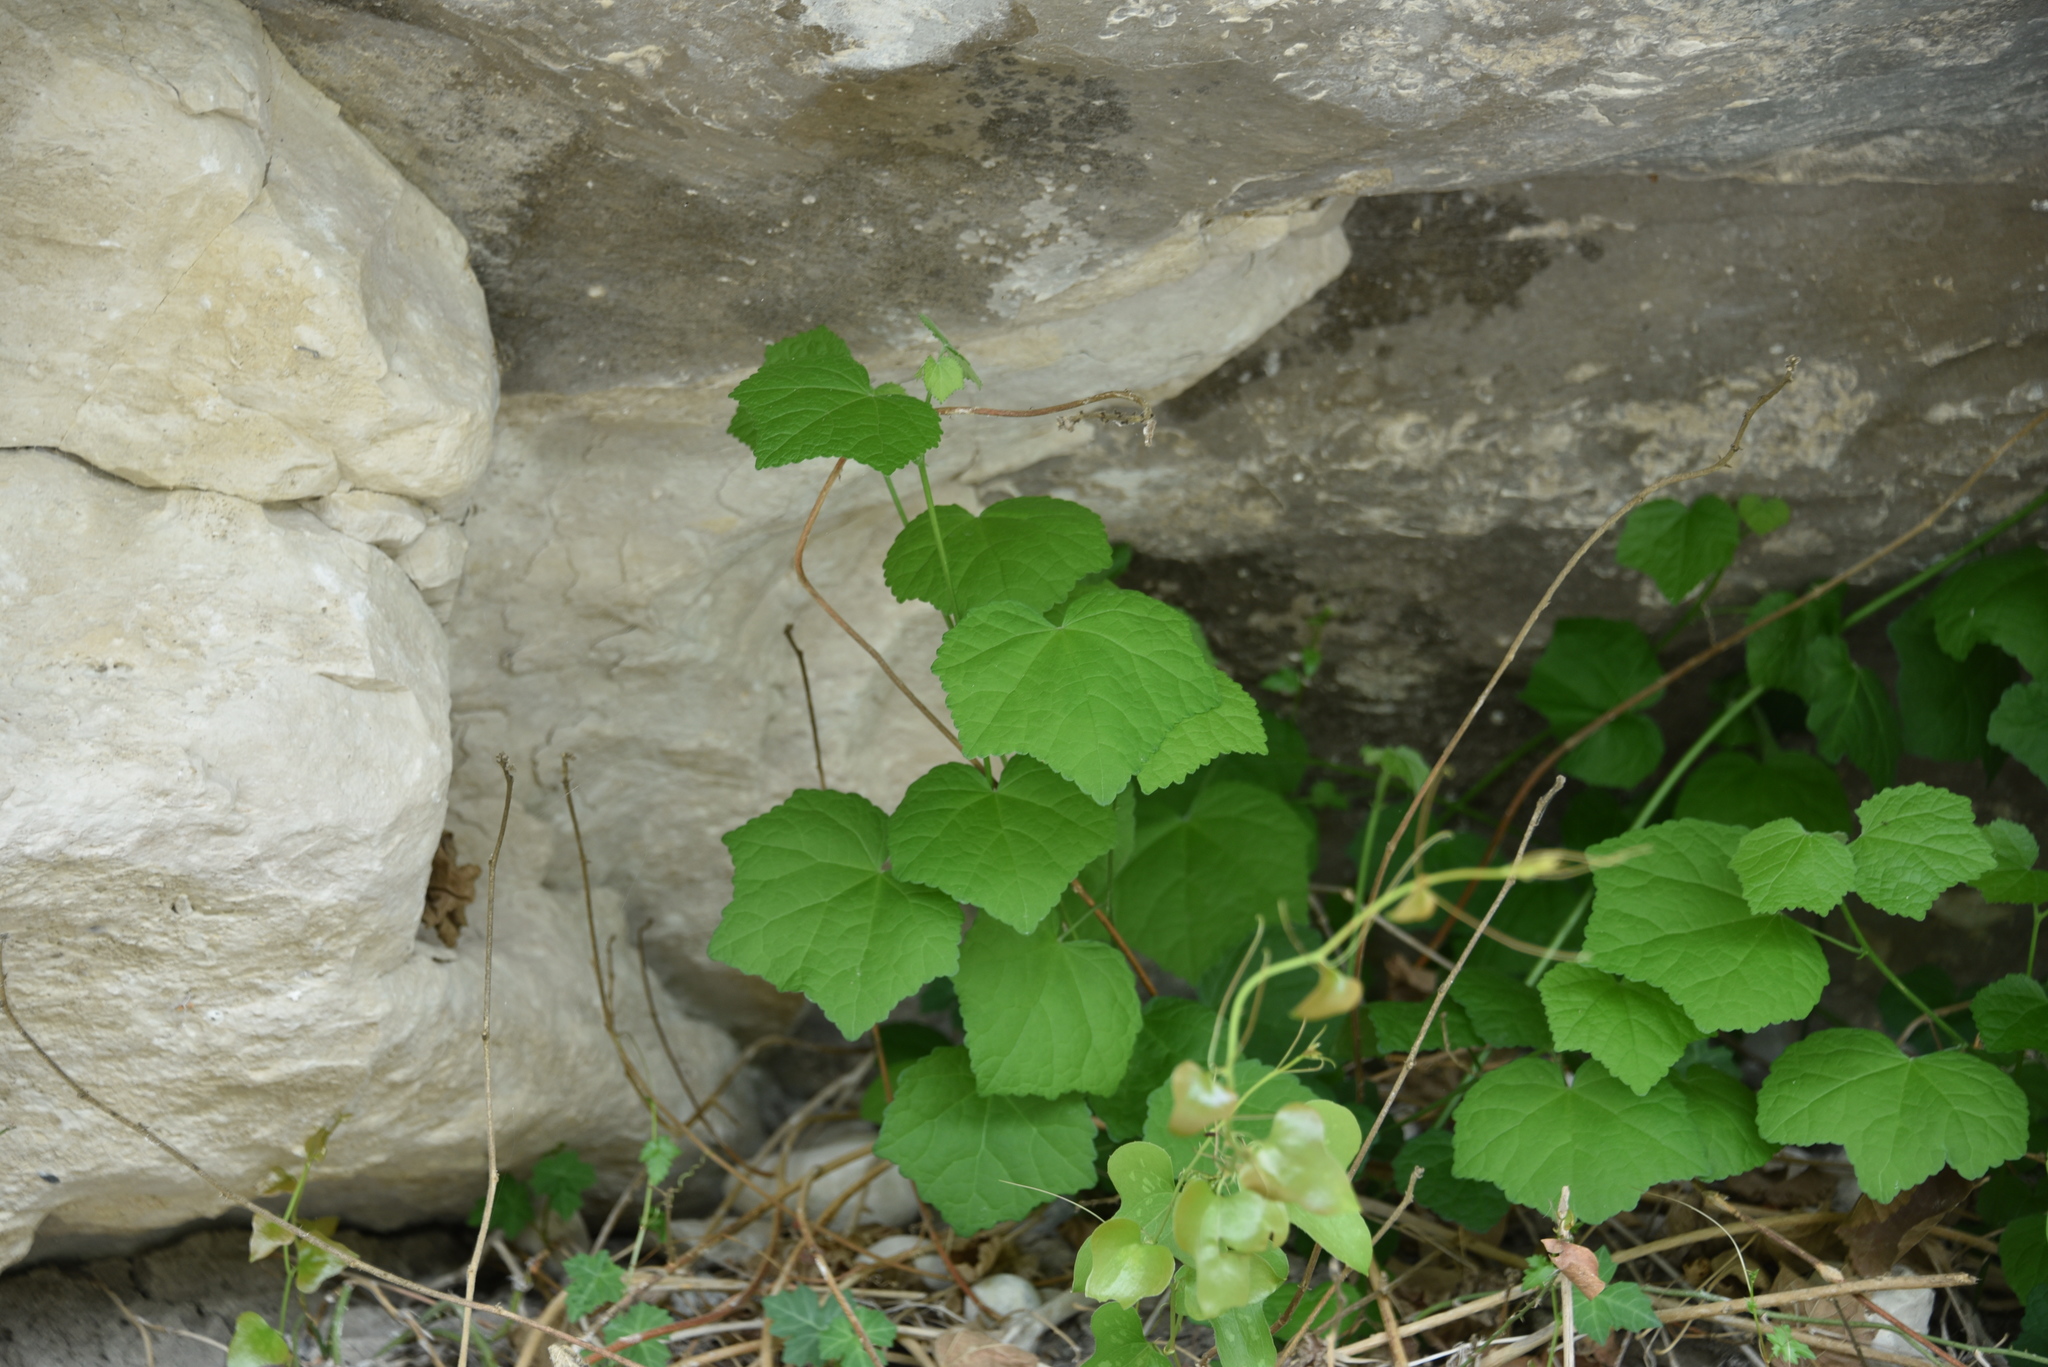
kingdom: Plantae
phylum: Tracheophyta
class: Magnoliopsida
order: Malvales
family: Malvaceae
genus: Malvaviscus
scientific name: Malvaviscus arboreus
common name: Wax mallow
